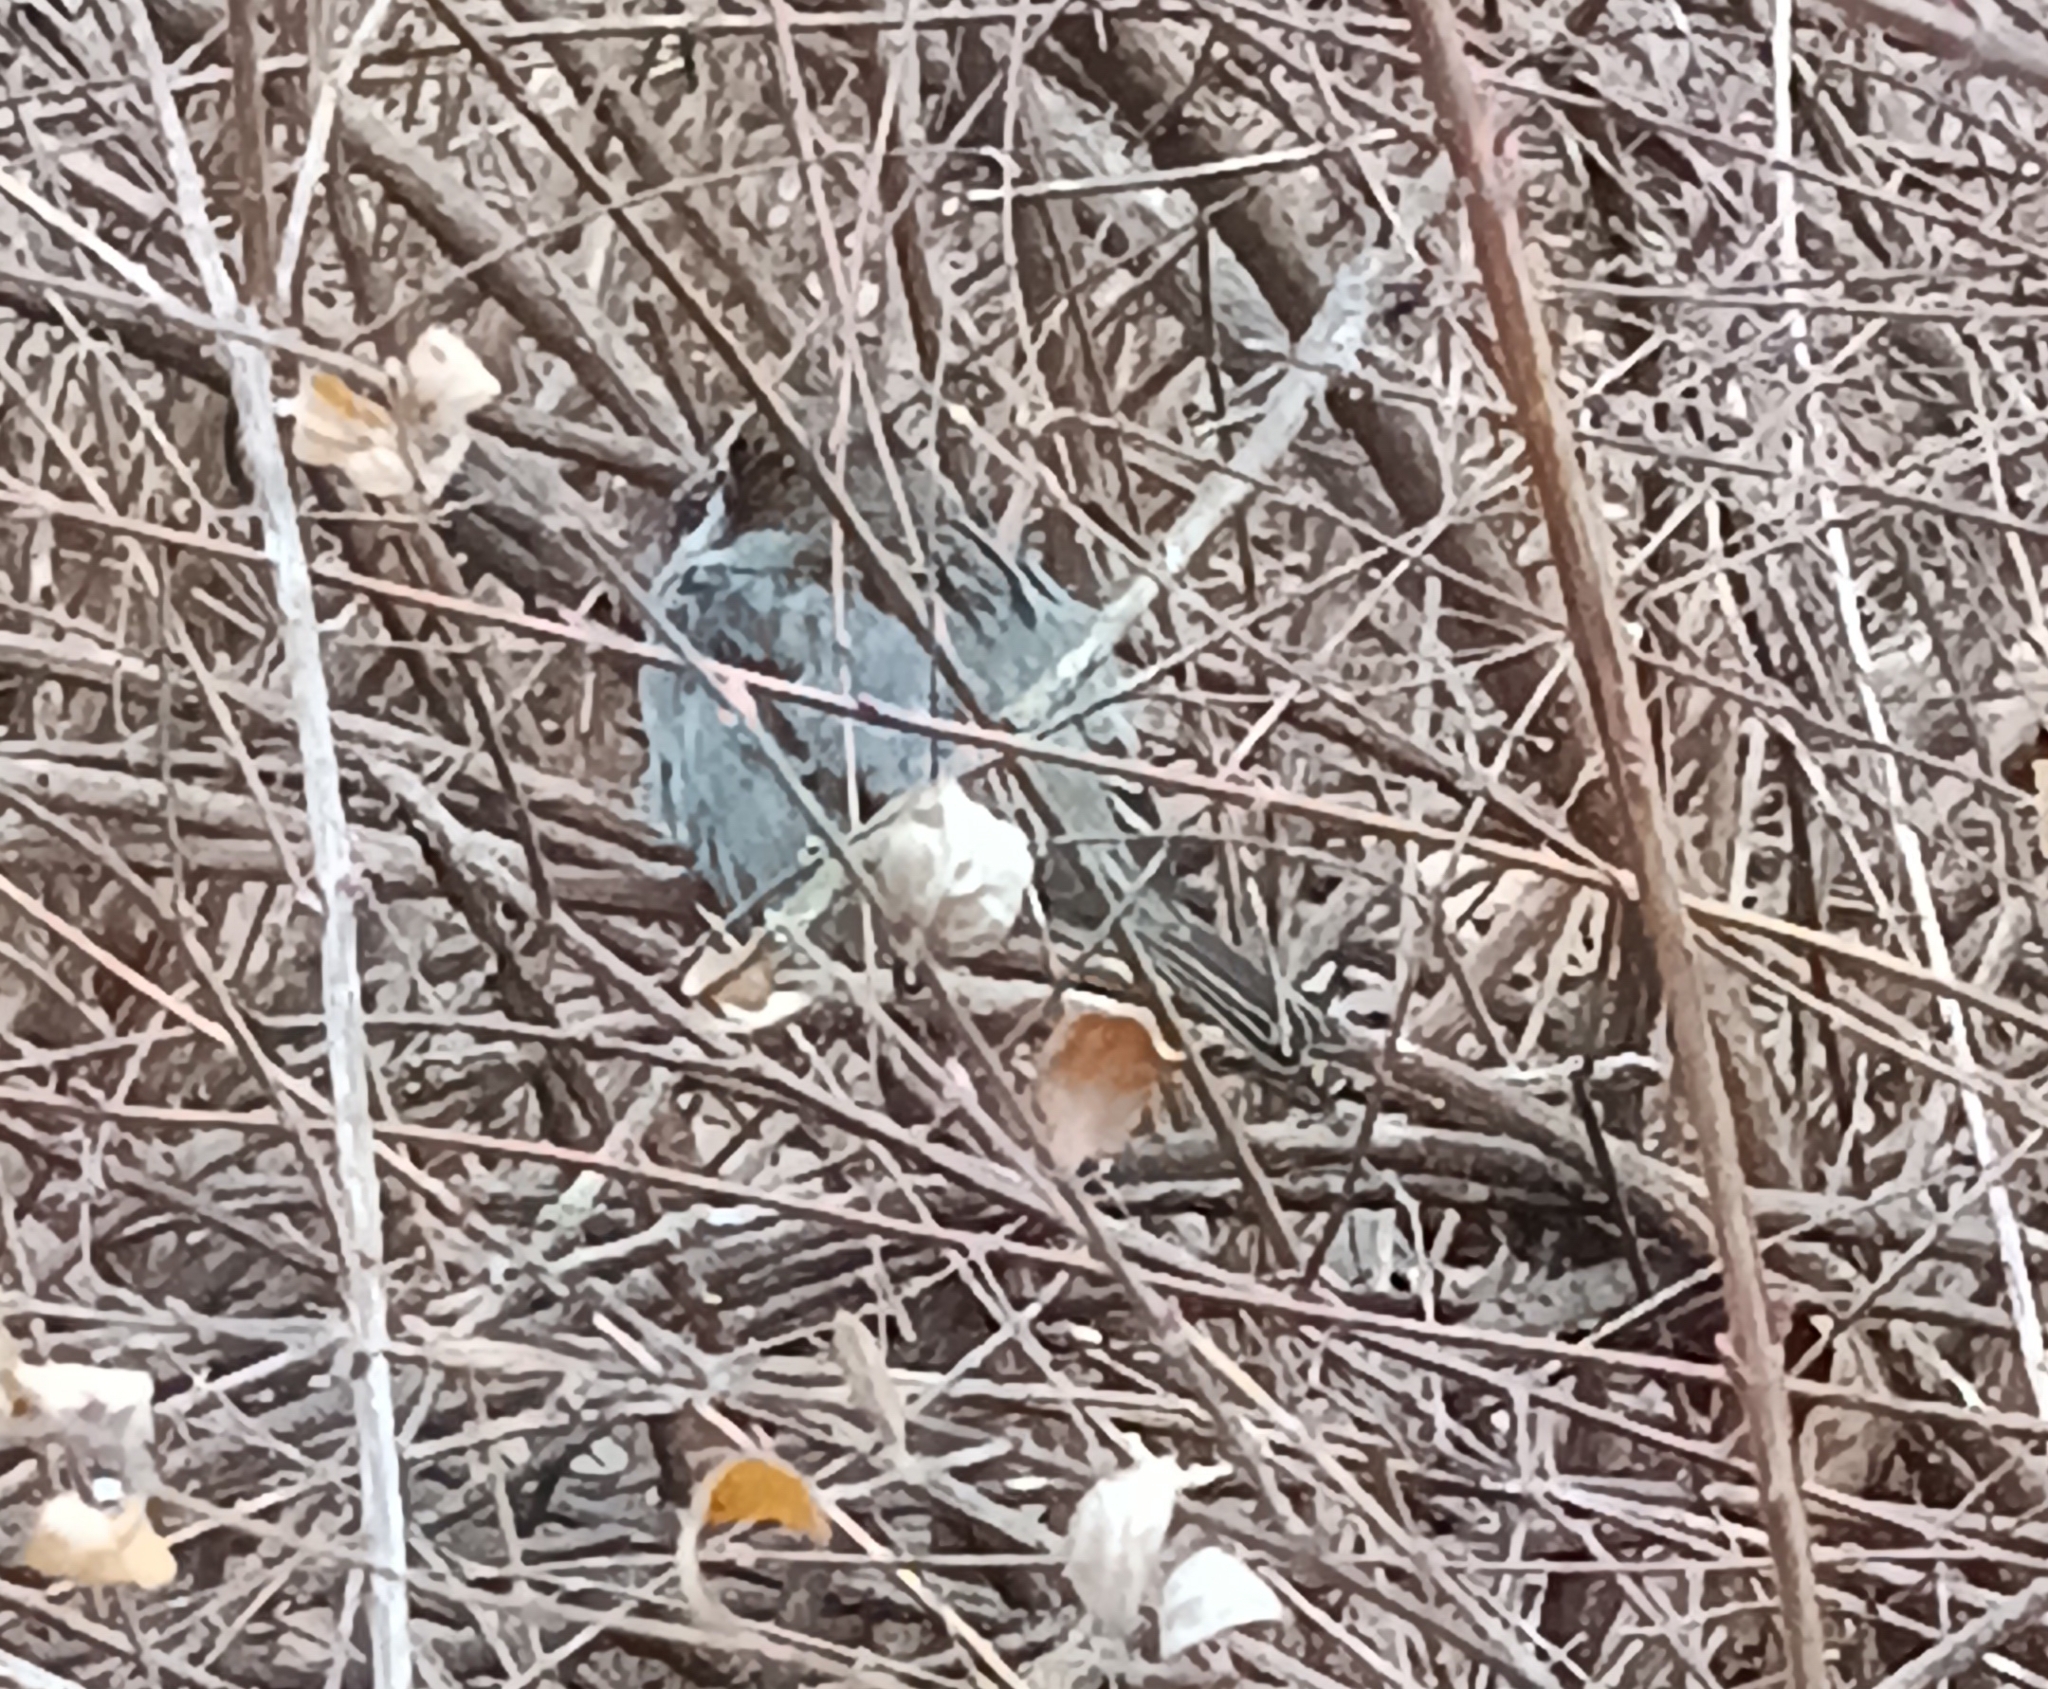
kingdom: Animalia
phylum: Chordata
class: Aves
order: Passeriformes
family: Passeridae
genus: Passer
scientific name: Passer domesticus
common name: House sparrow
